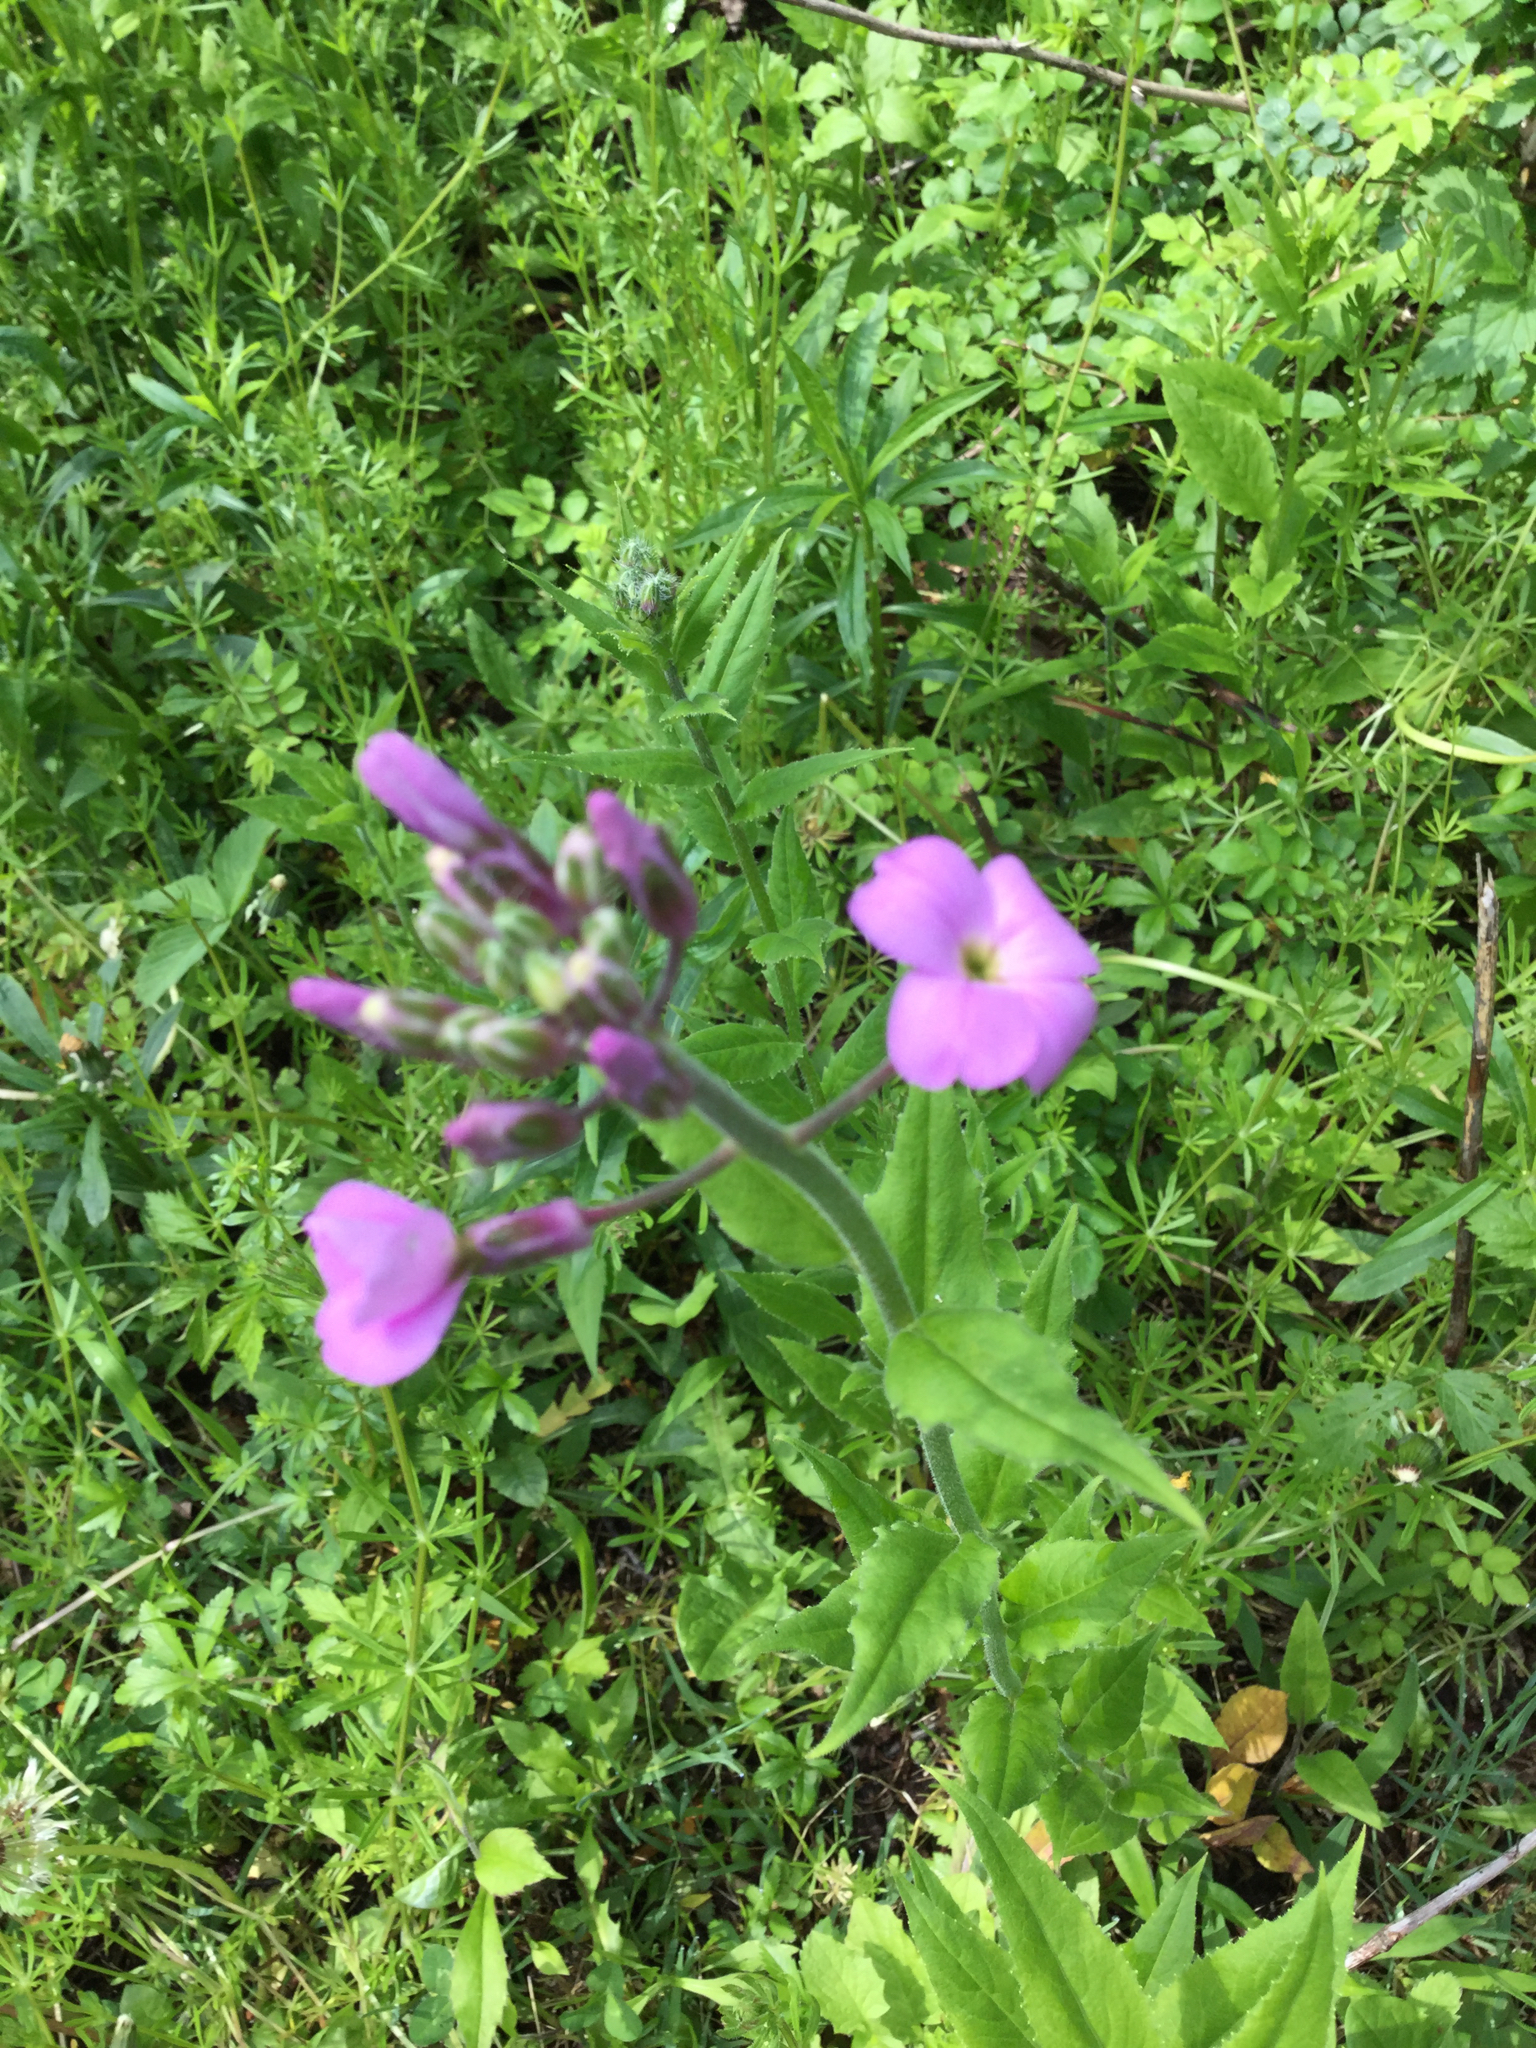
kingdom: Plantae
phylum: Tracheophyta
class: Magnoliopsida
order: Brassicales
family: Brassicaceae
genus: Hesperis
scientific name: Hesperis matronalis
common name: Dame's-violet
